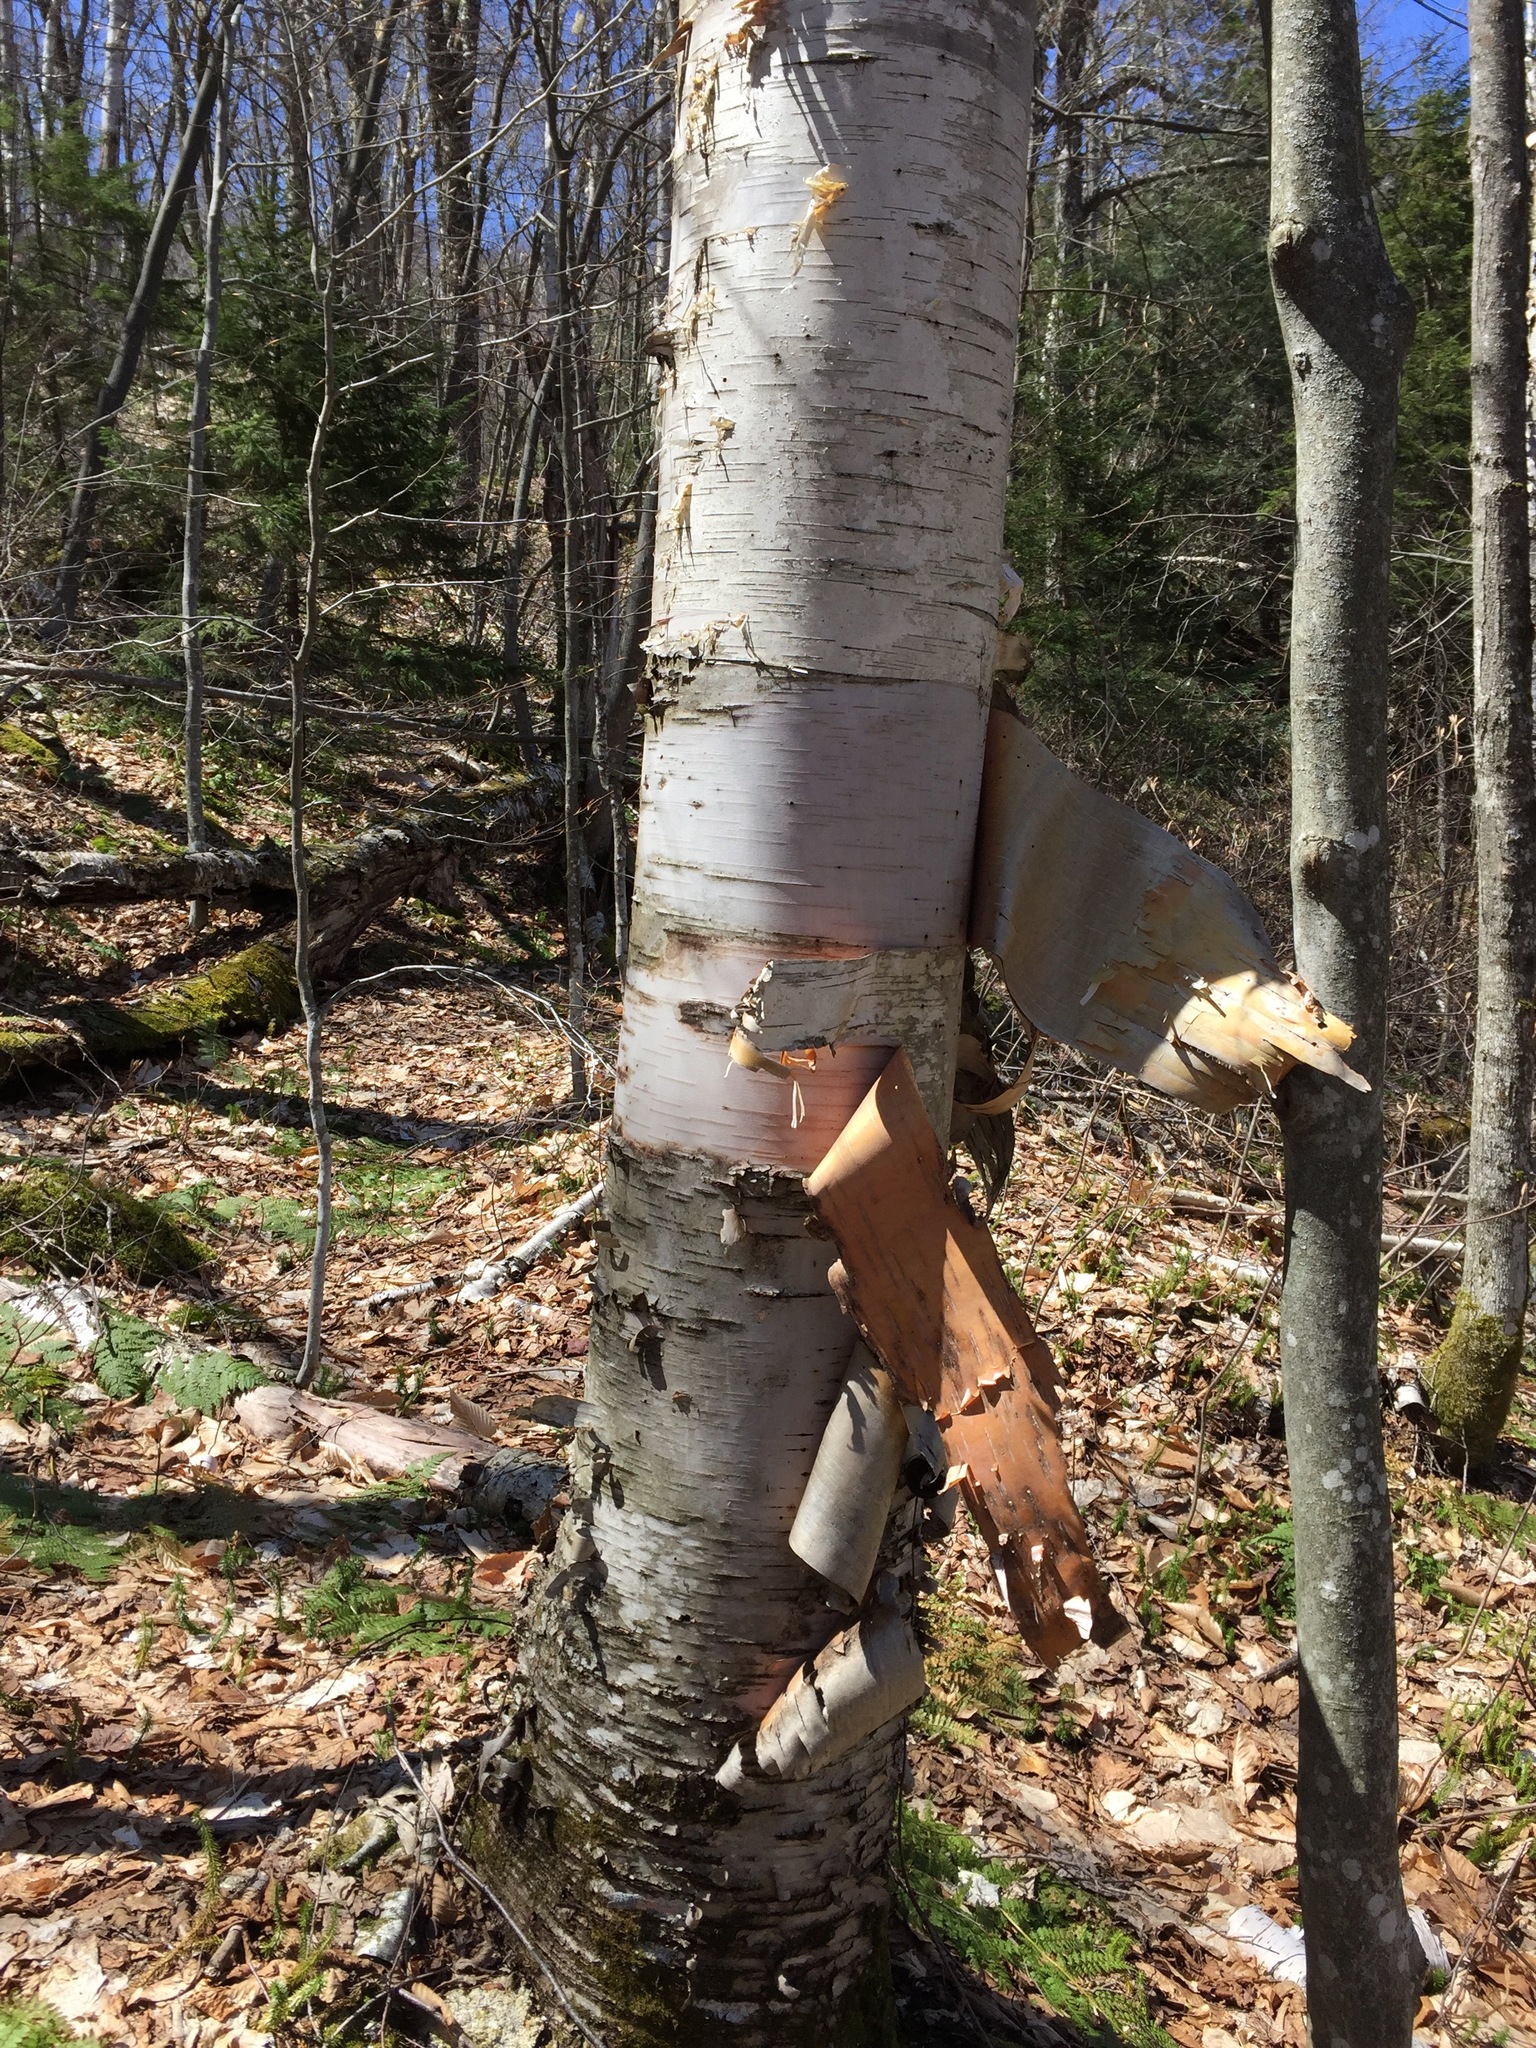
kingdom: Plantae
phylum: Tracheophyta
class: Magnoliopsida
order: Fagales
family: Betulaceae
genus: Betula
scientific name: Betula papyrifera
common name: Paper birch
